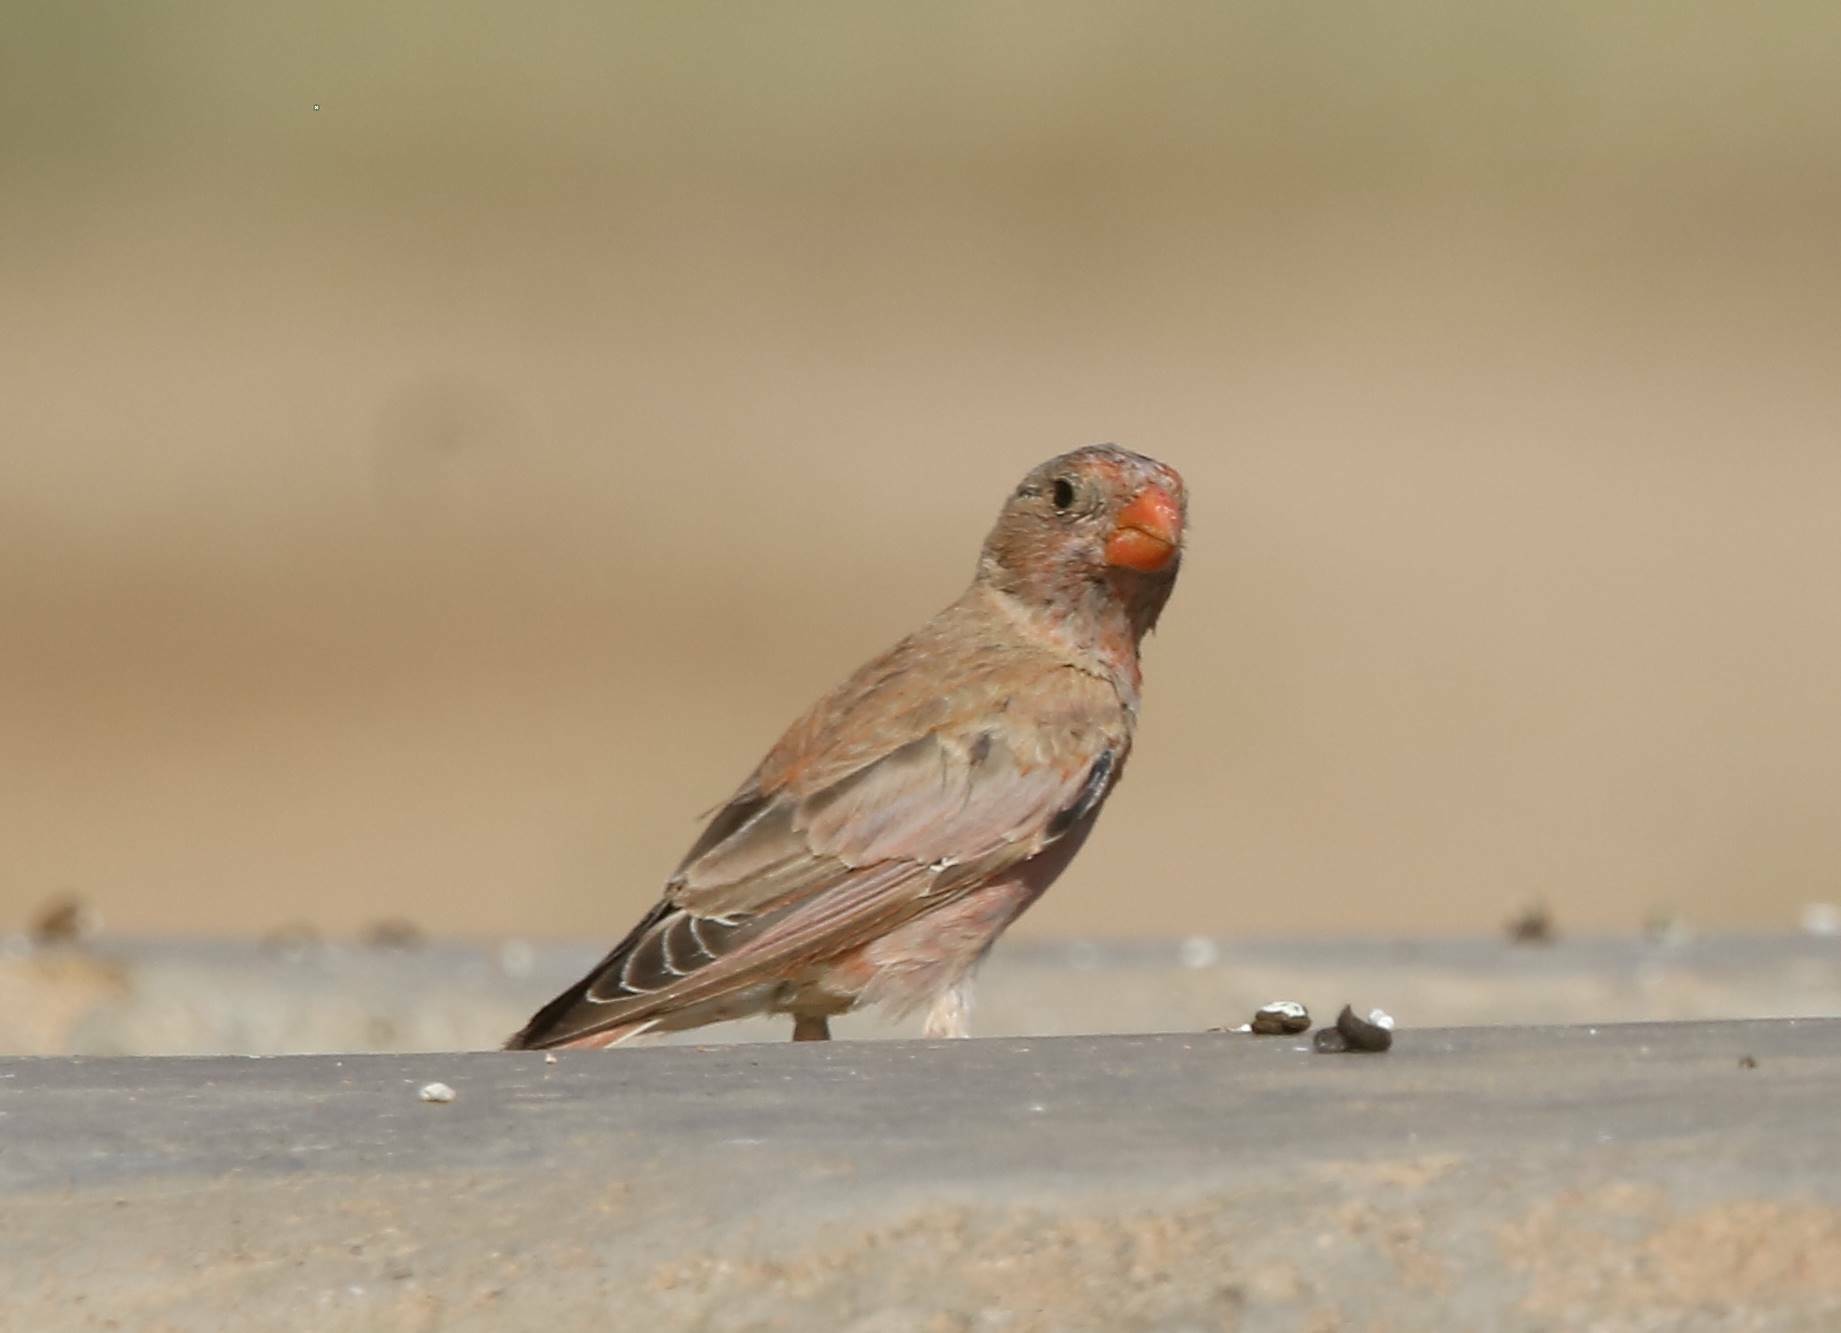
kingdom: Animalia
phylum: Chordata
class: Aves
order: Passeriformes
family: Fringillidae
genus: Bucanetes
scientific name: Bucanetes githagineus
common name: Trumpeter finch
